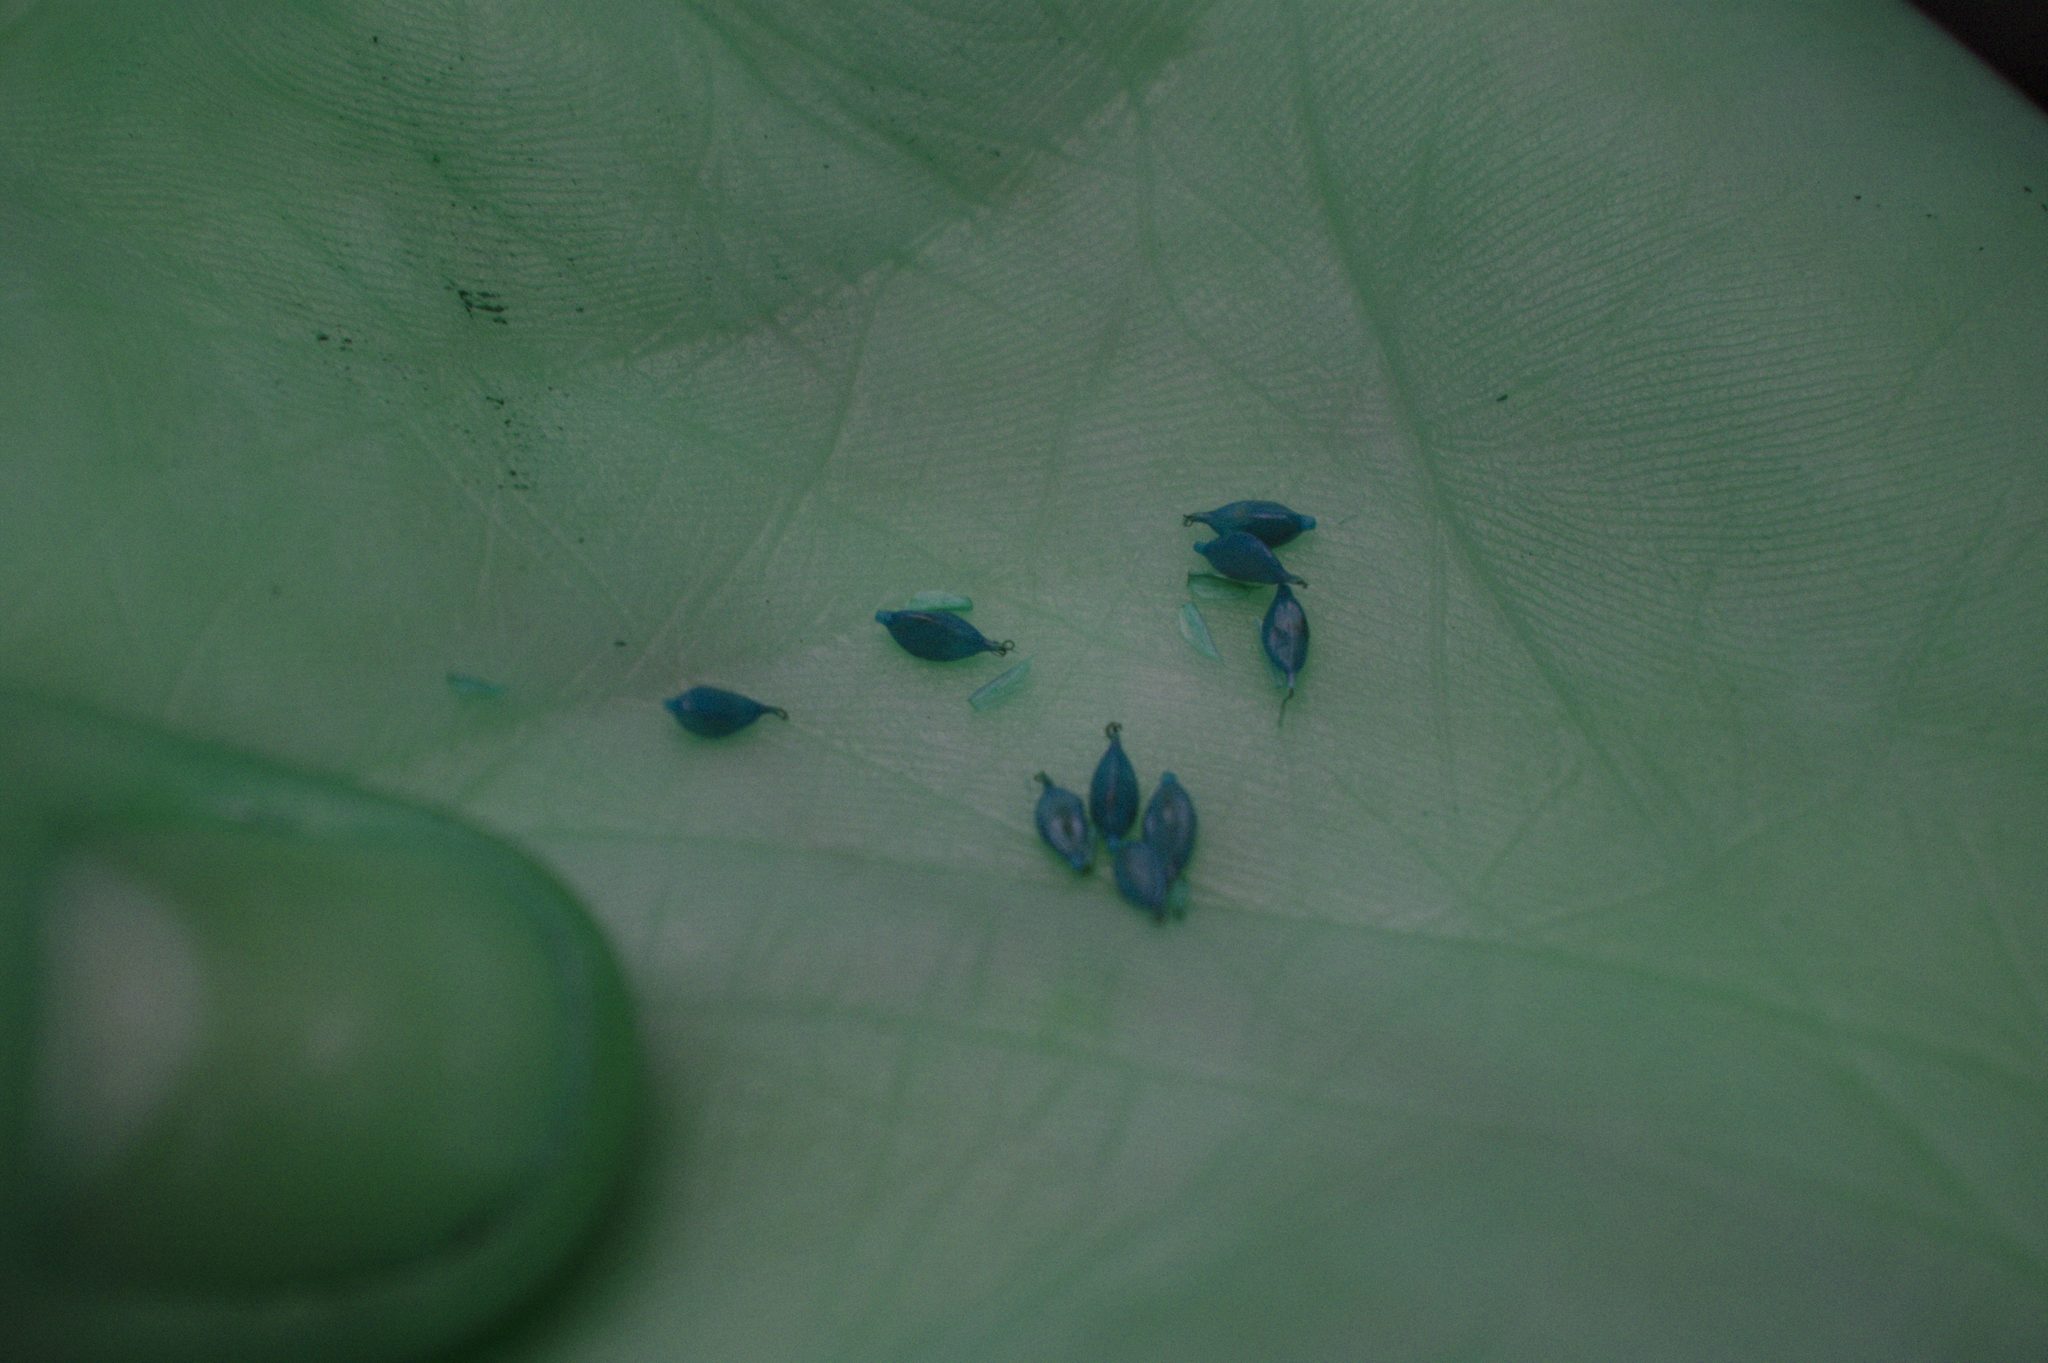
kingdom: Plantae
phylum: Tracheophyta
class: Liliopsida
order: Poales
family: Cyperaceae
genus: Carex
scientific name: Carex arctata
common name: Black sedge
